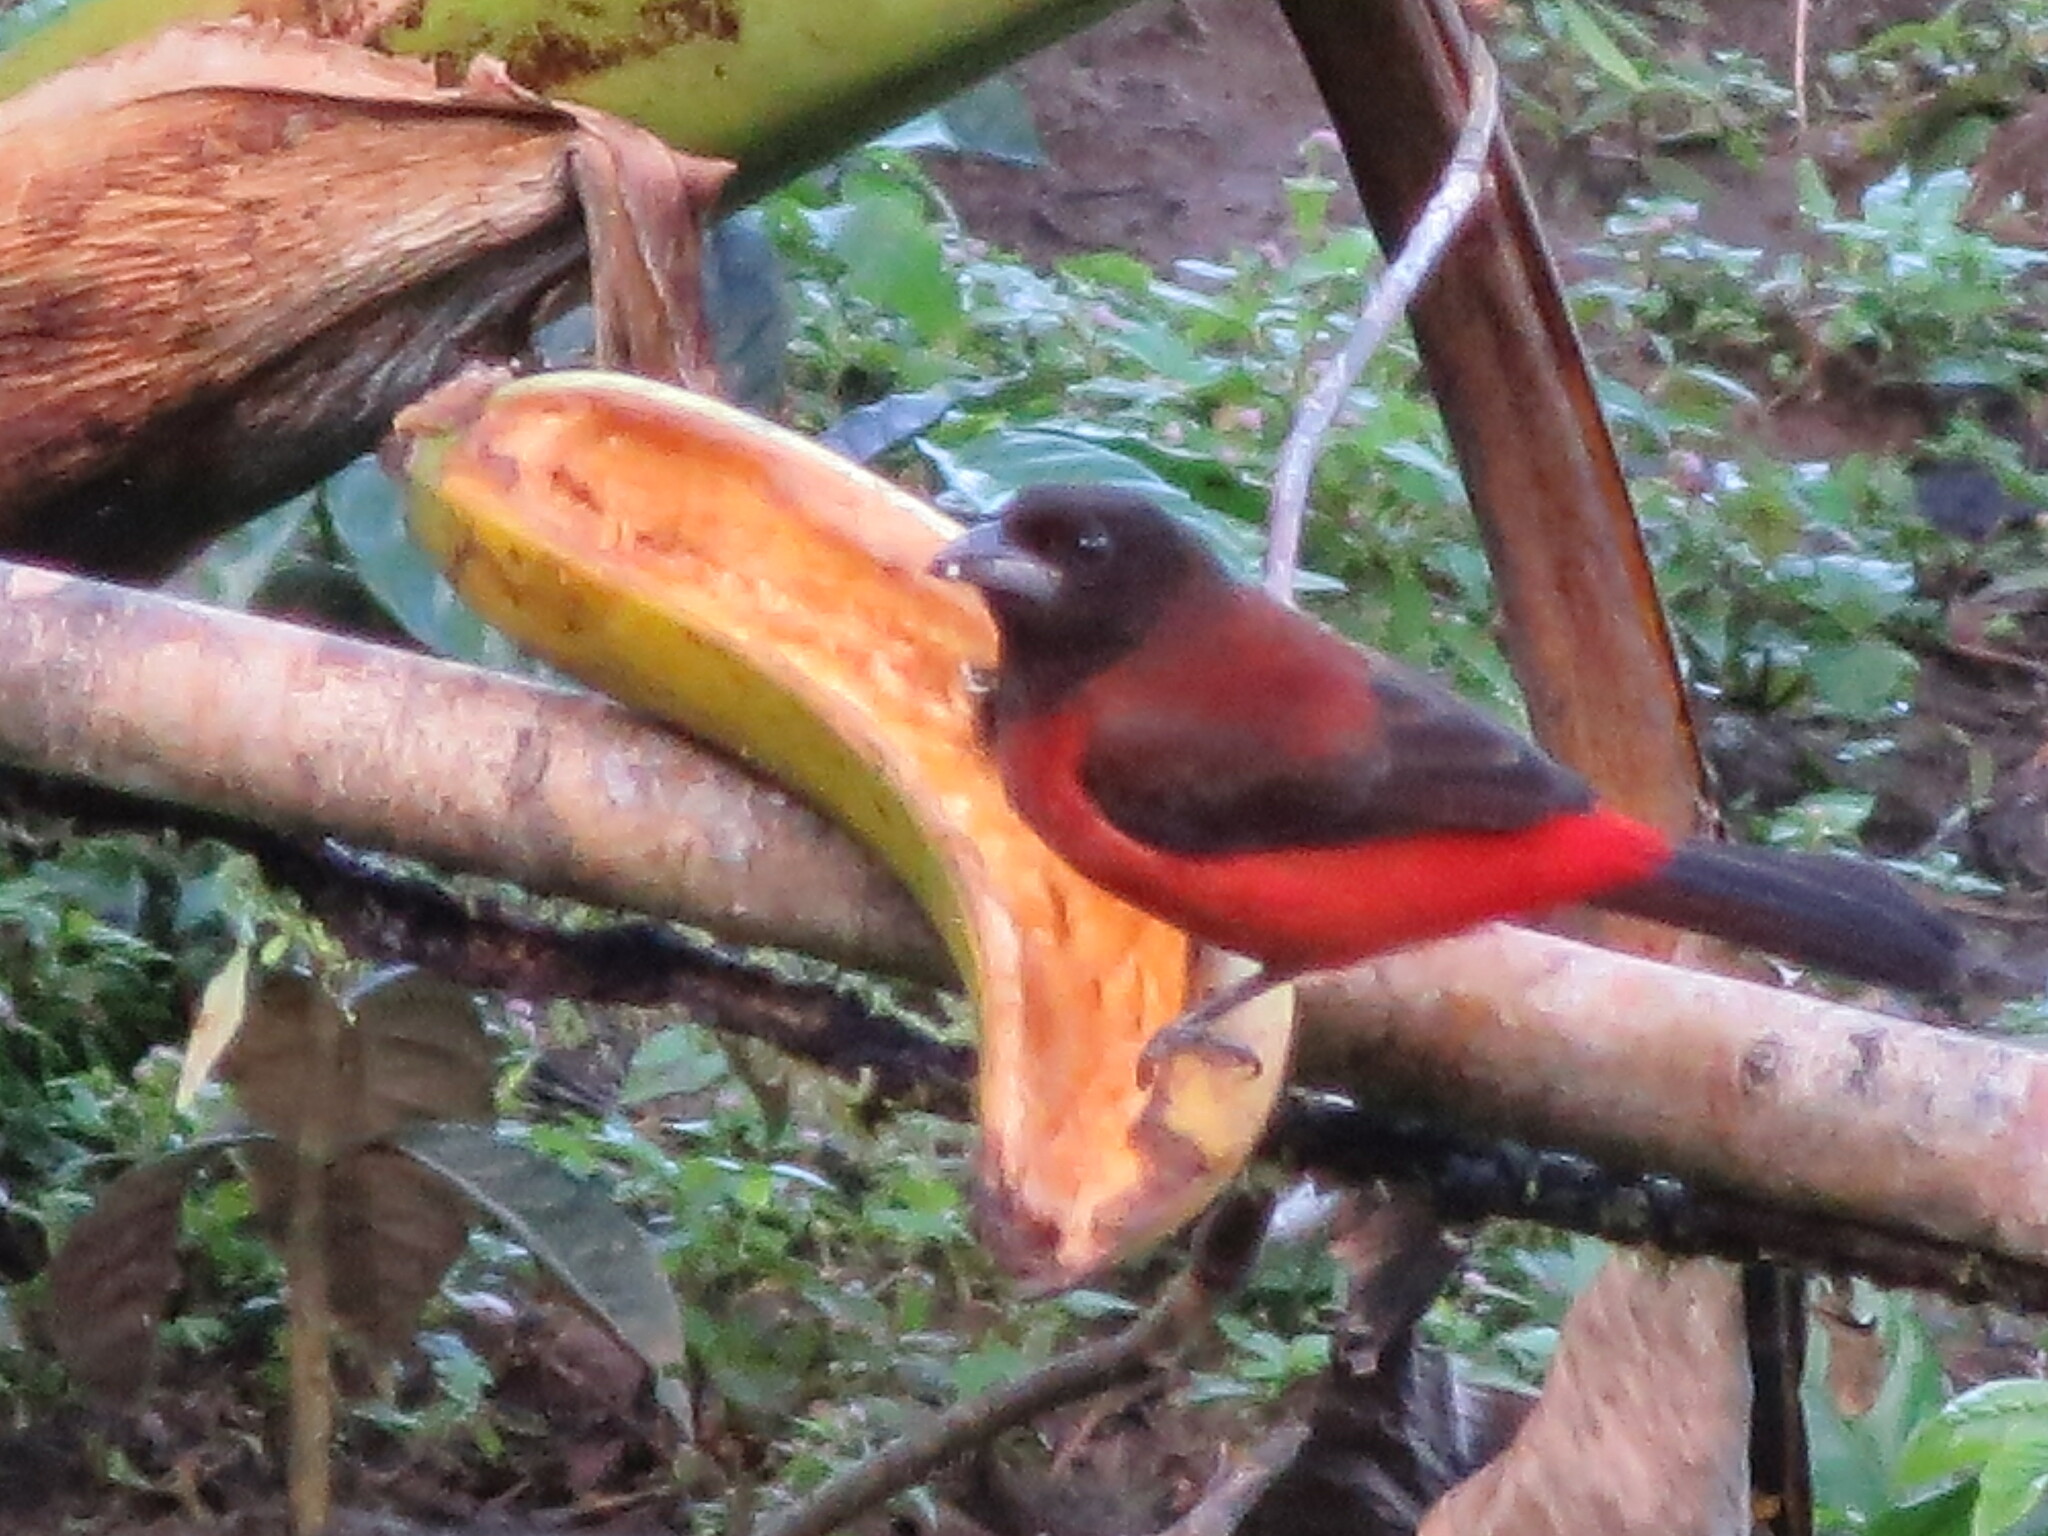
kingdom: Animalia
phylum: Chordata
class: Aves
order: Passeriformes
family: Thraupidae
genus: Ramphocelus
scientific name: Ramphocelus dimidiatus
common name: Crimson-backed tanager
